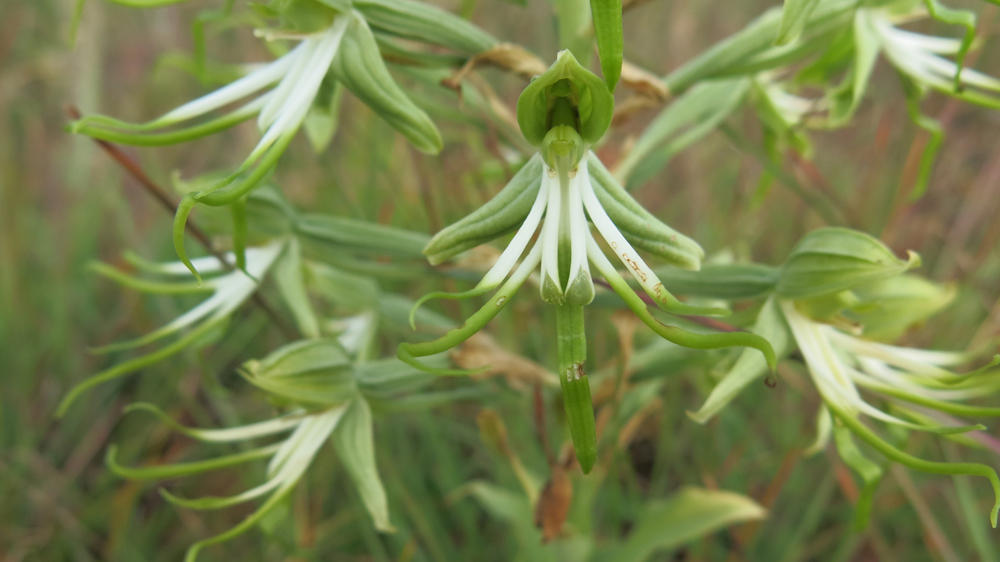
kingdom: Plantae
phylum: Tracheophyta
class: Liliopsida
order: Asparagales
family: Orchidaceae
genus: Bonatea
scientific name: Bonatea antennifera
